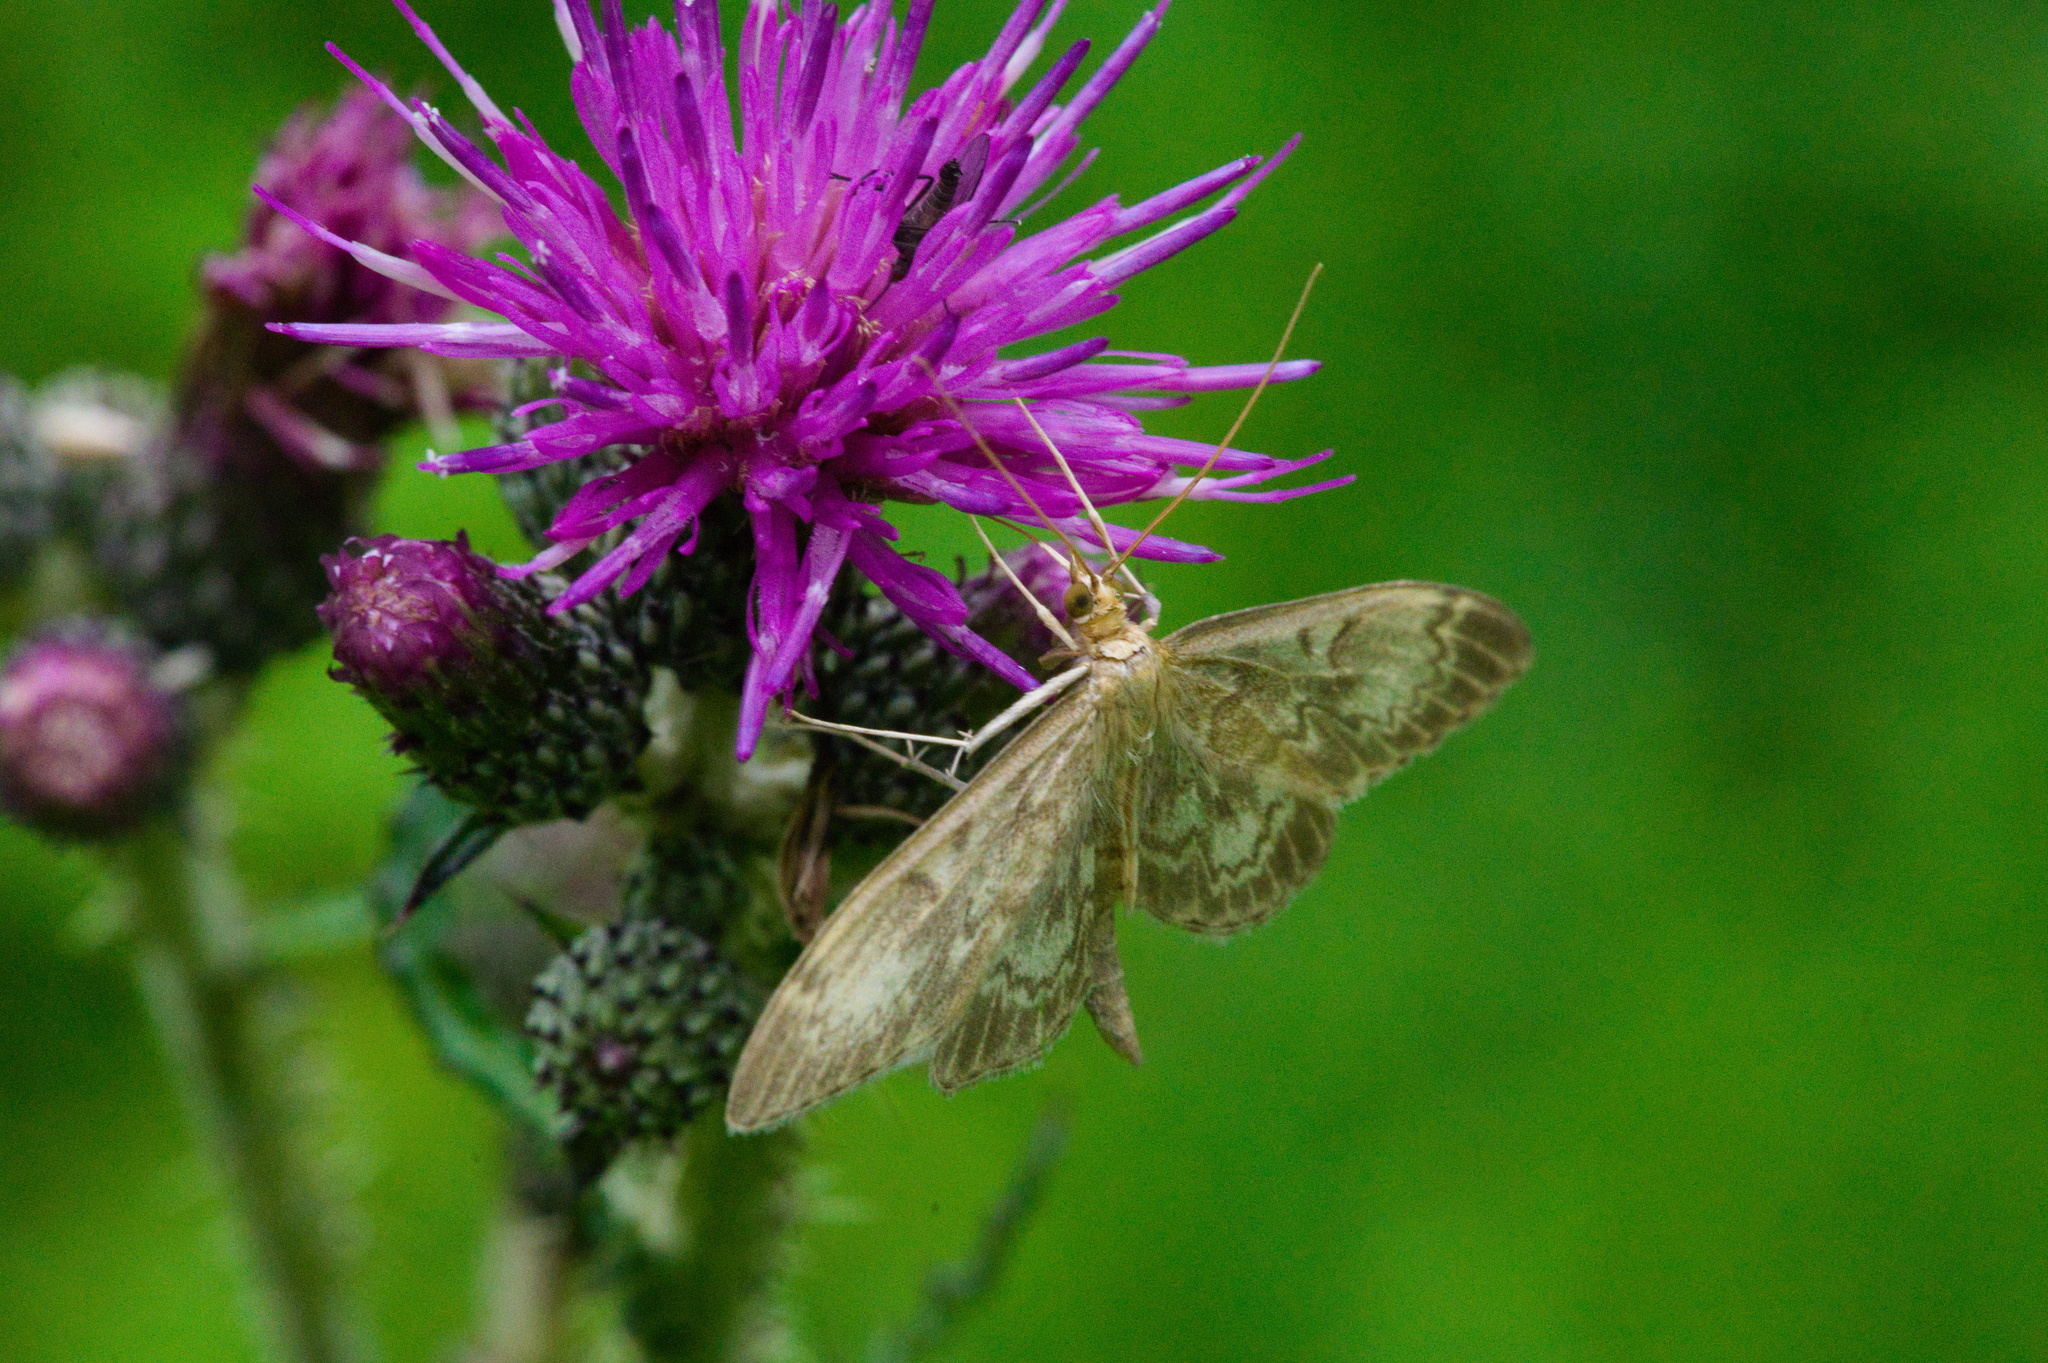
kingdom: Animalia
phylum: Arthropoda
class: Insecta
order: Lepidoptera
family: Crambidae
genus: Anania
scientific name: Anania lancealis
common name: Long-winged pearl
